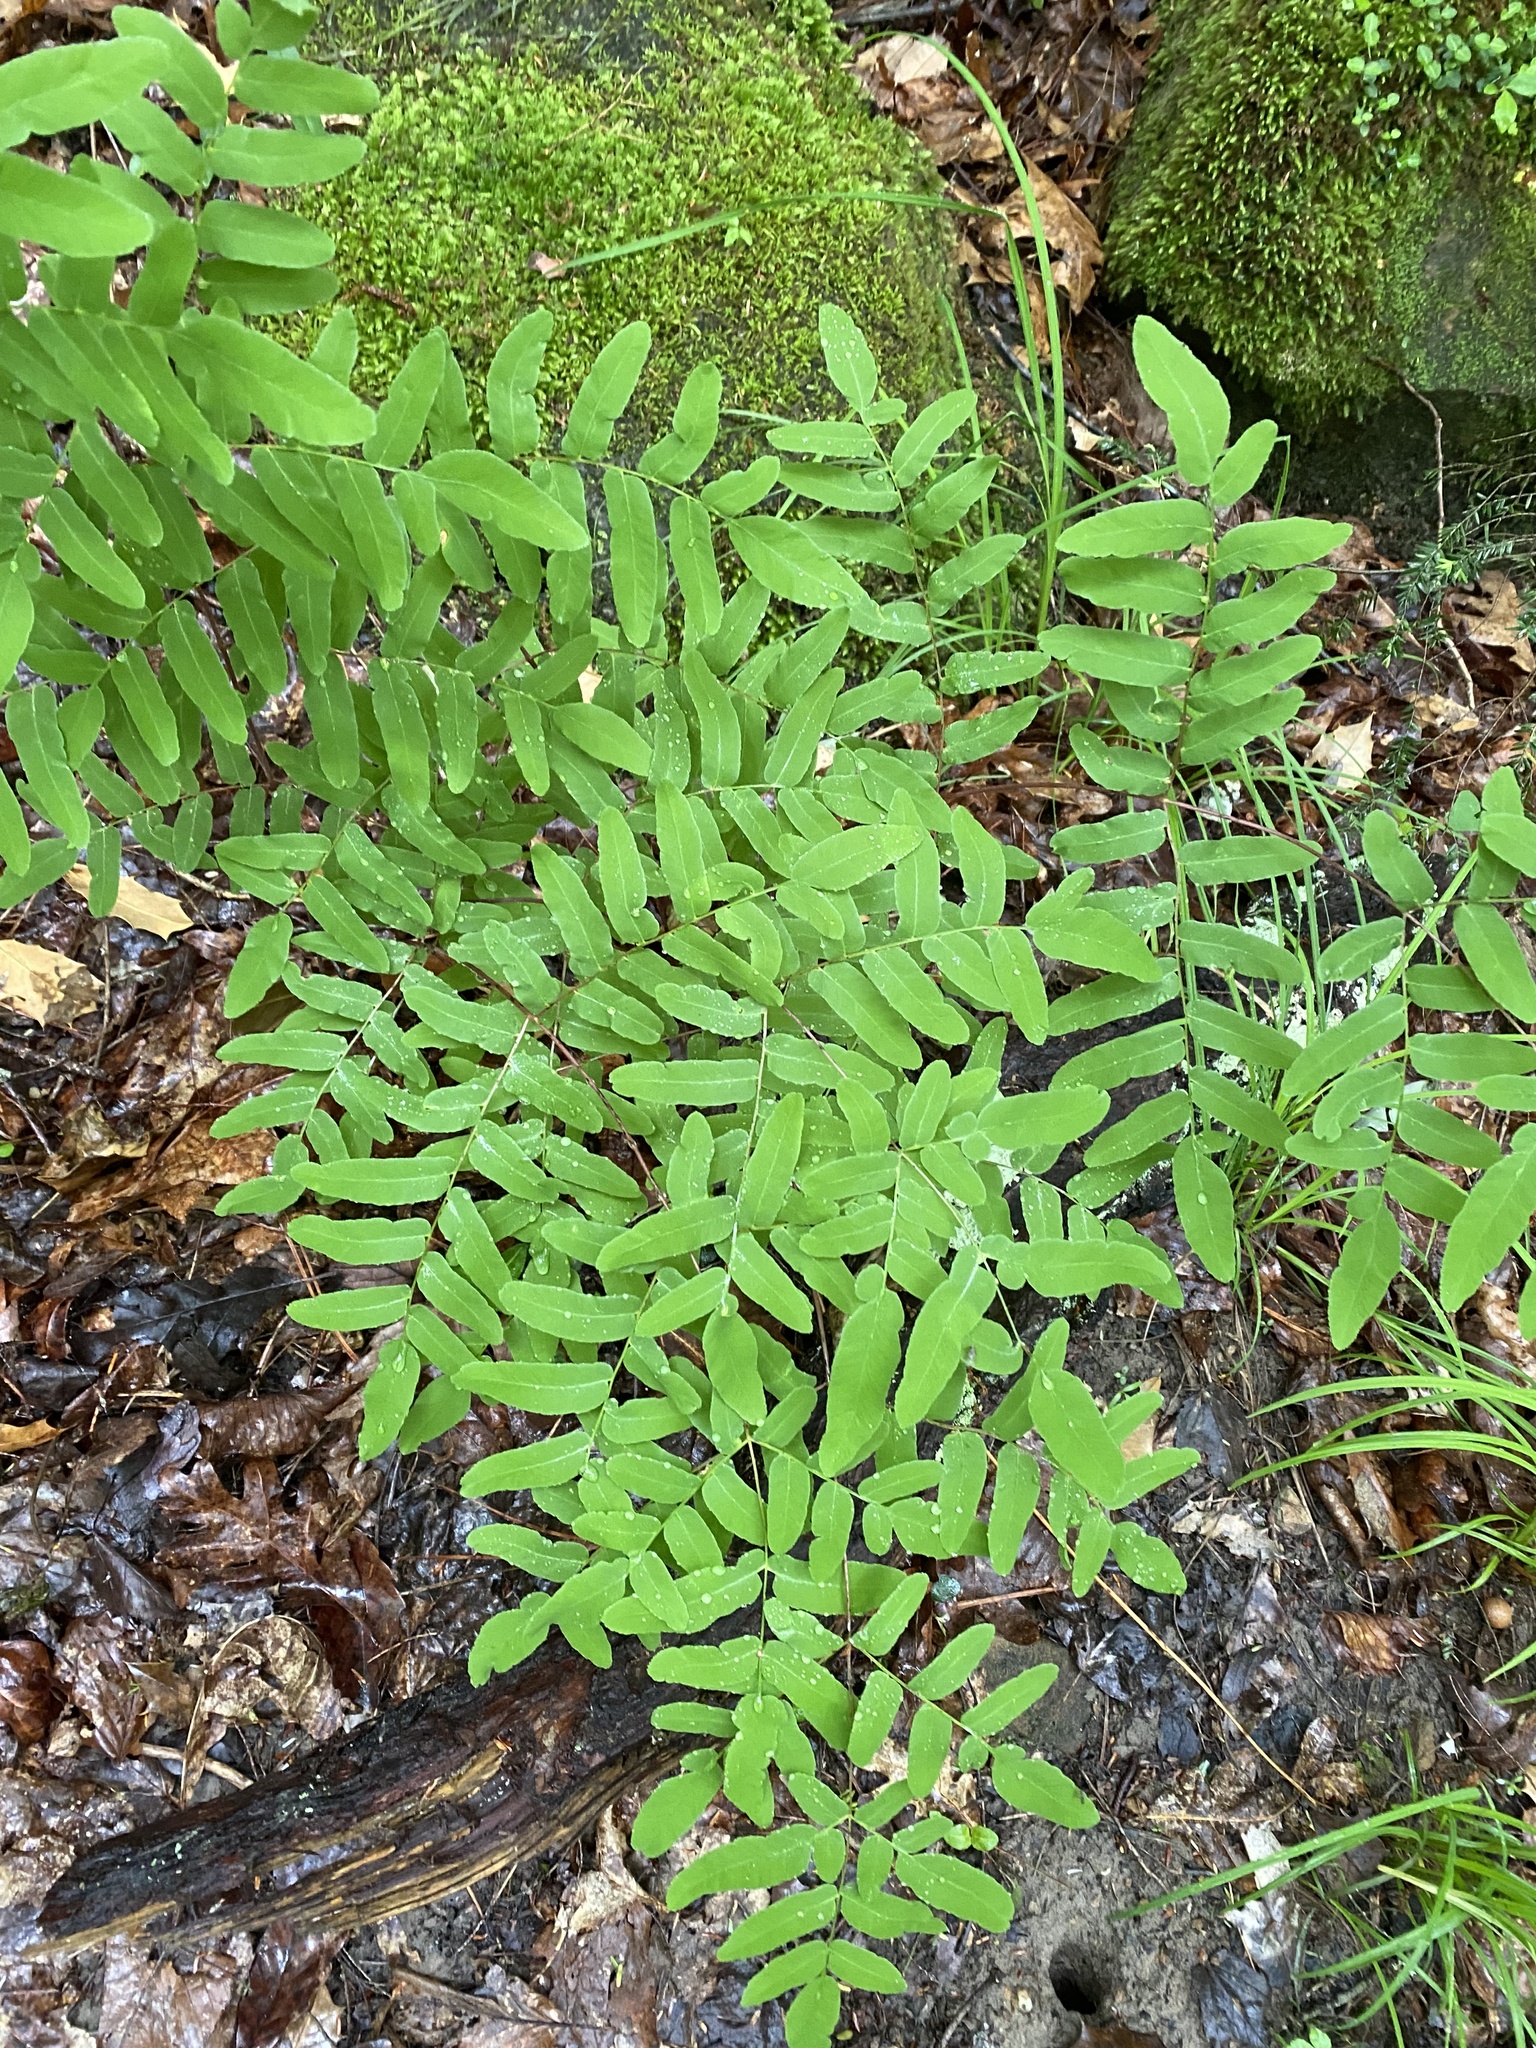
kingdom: Plantae
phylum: Tracheophyta
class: Polypodiopsida
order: Osmundales
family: Osmundaceae
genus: Osmunda
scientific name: Osmunda spectabilis
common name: American royal fern
